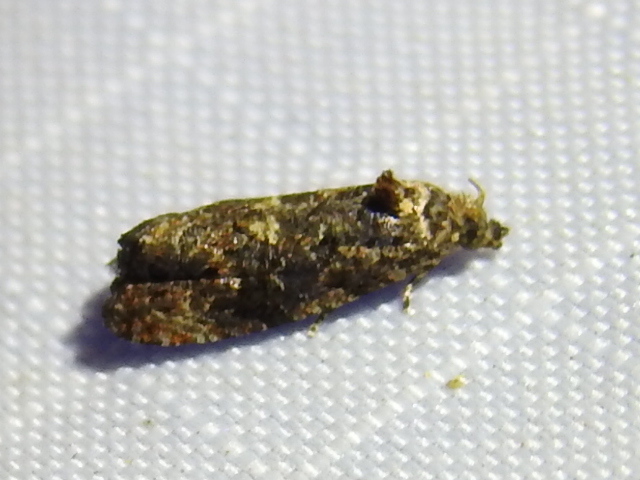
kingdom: Animalia
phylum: Arthropoda
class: Insecta
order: Lepidoptera
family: Tortricidae
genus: Endothenia
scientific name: Endothenia hebesana
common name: Verbena bud moth
